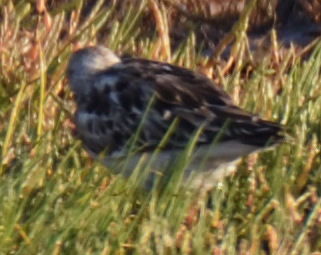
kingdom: Animalia
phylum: Chordata
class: Aves
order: Charadriiformes
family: Scolopacidae
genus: Arenaria
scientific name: Arenaria interpres
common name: Ruddy turnstone
